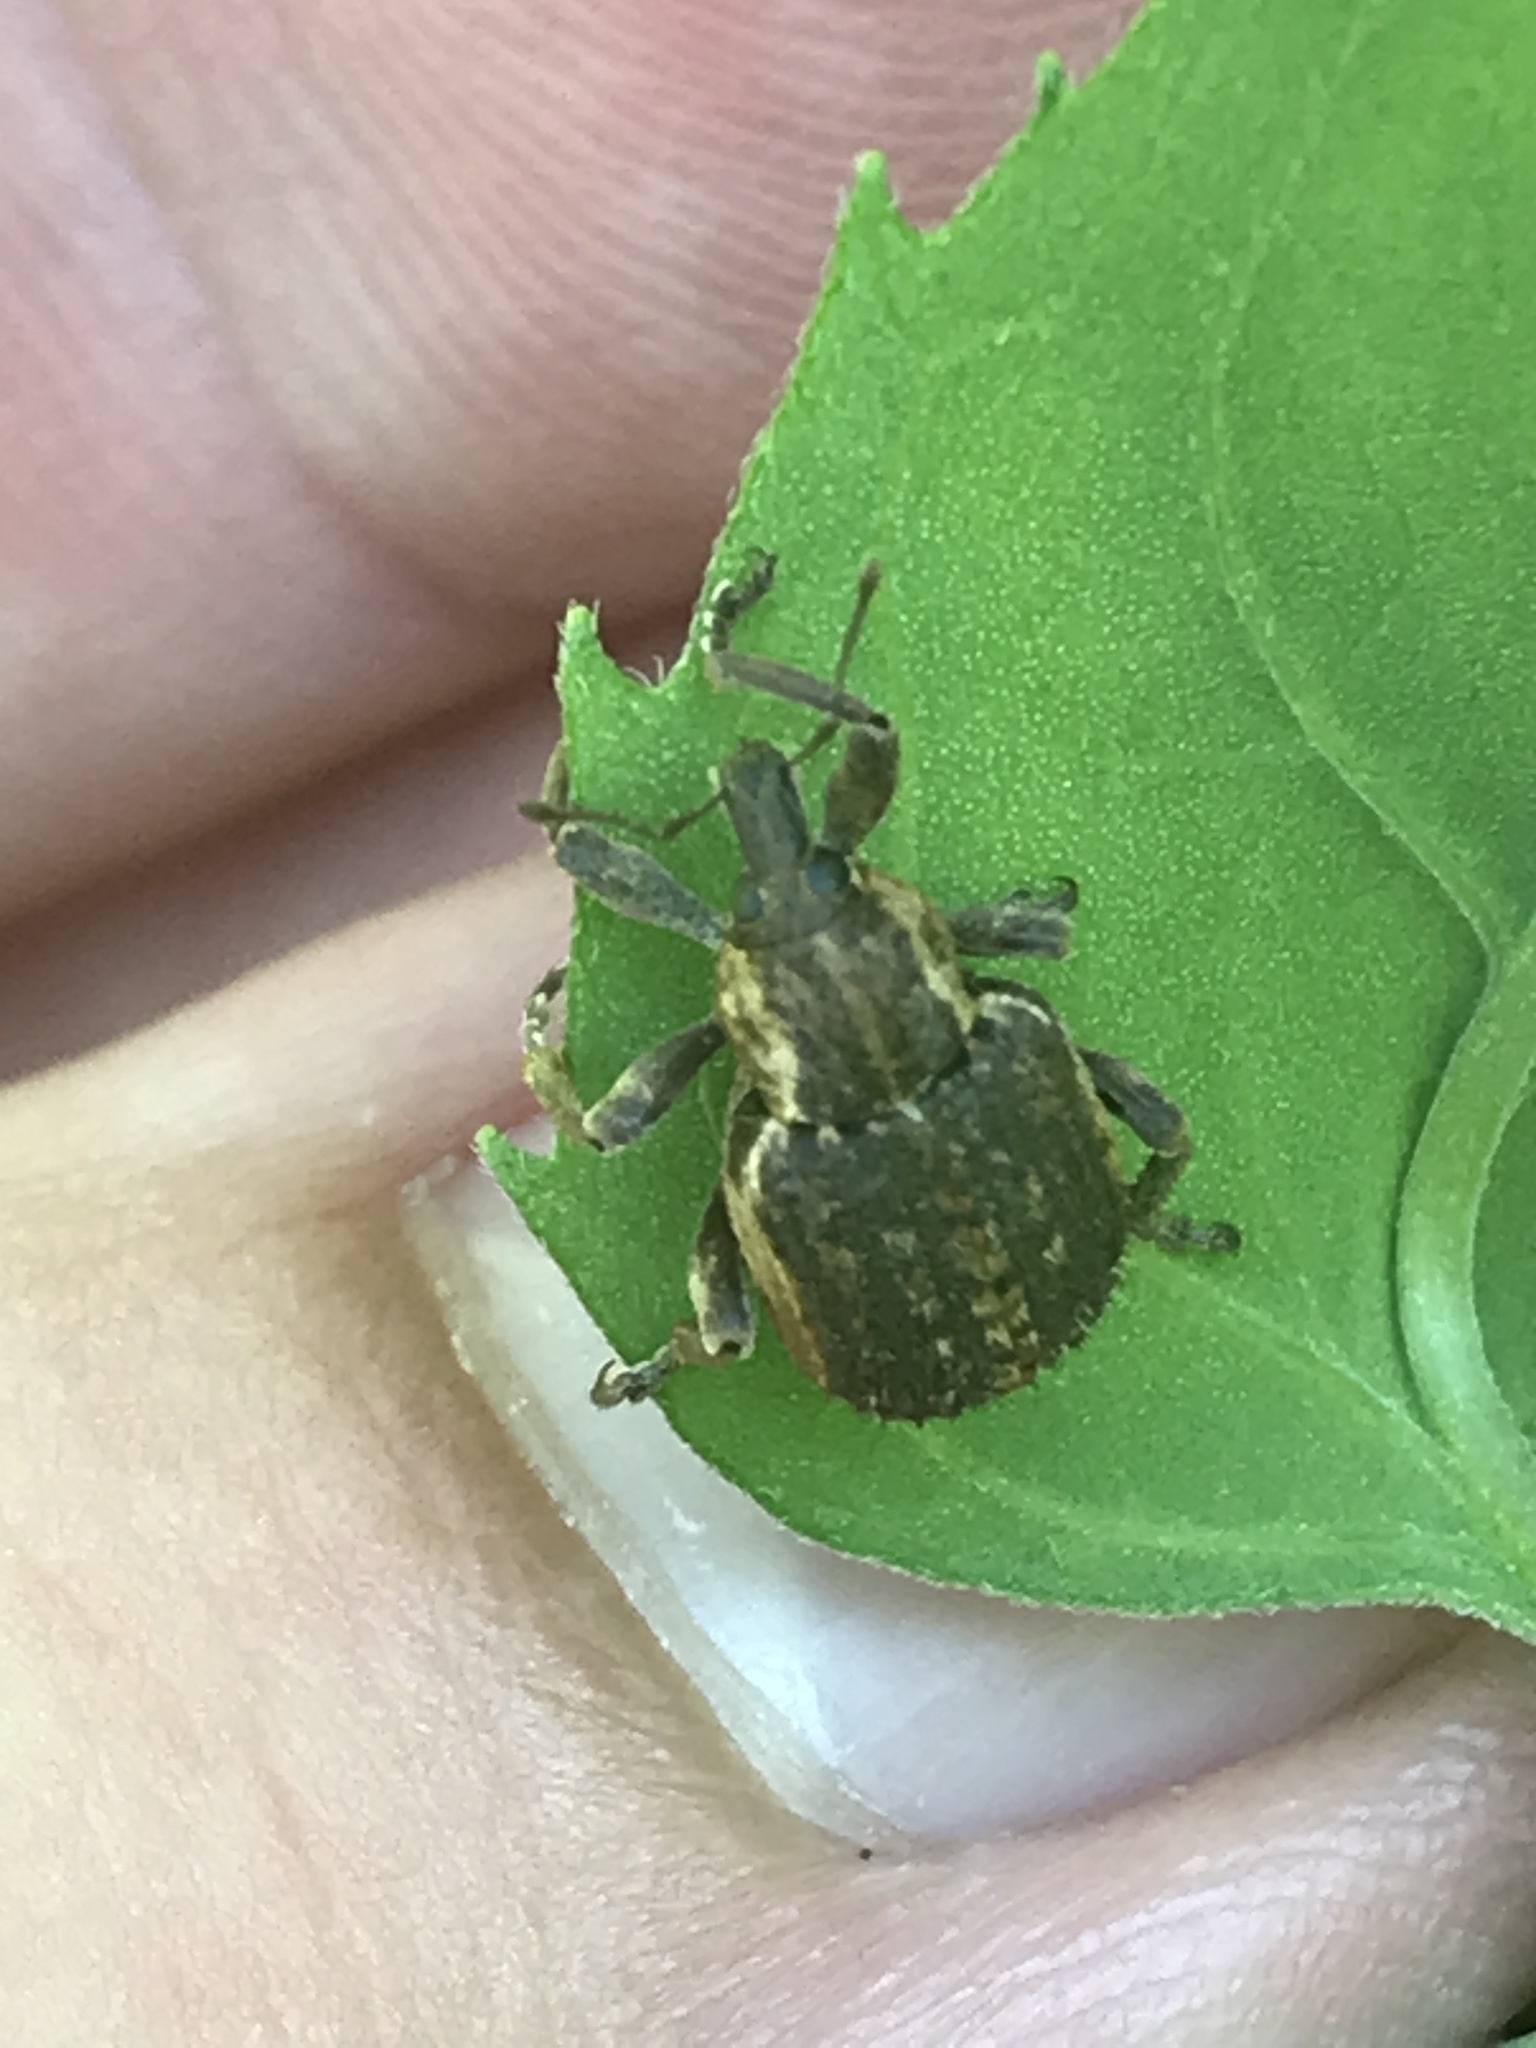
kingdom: Animalia
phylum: Arthropoda
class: Insecta
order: Coleoptera
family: Curculionidae
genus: Brachypera
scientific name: Brachypera zoilus
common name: Clover leaf weevil
